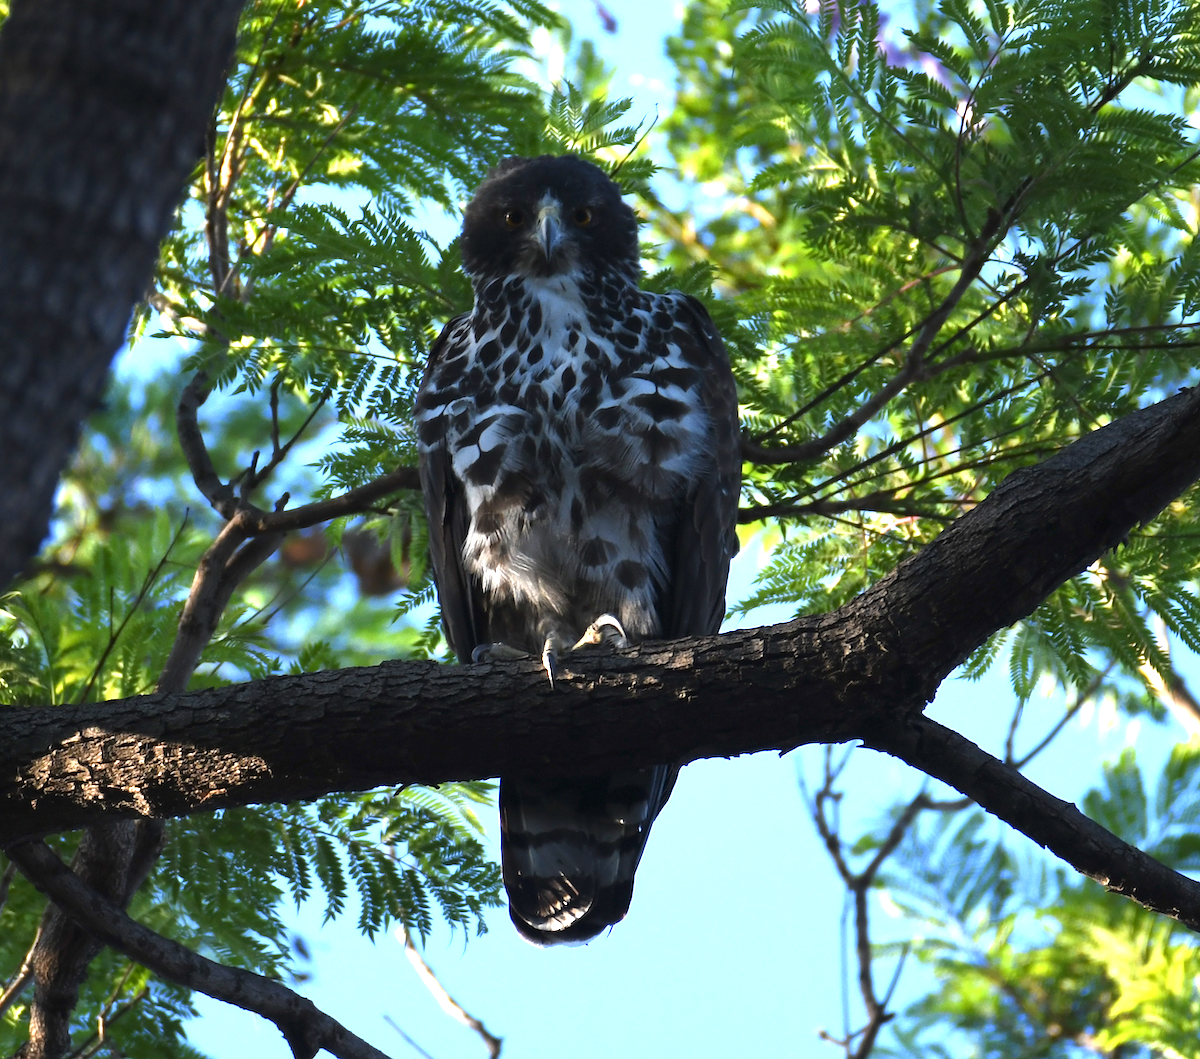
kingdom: Animalia
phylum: Chordata
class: Aves
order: Accipitriformes
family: Accipitridae
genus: Aquila
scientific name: Aquila spilogaster
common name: African hawk-eagle
